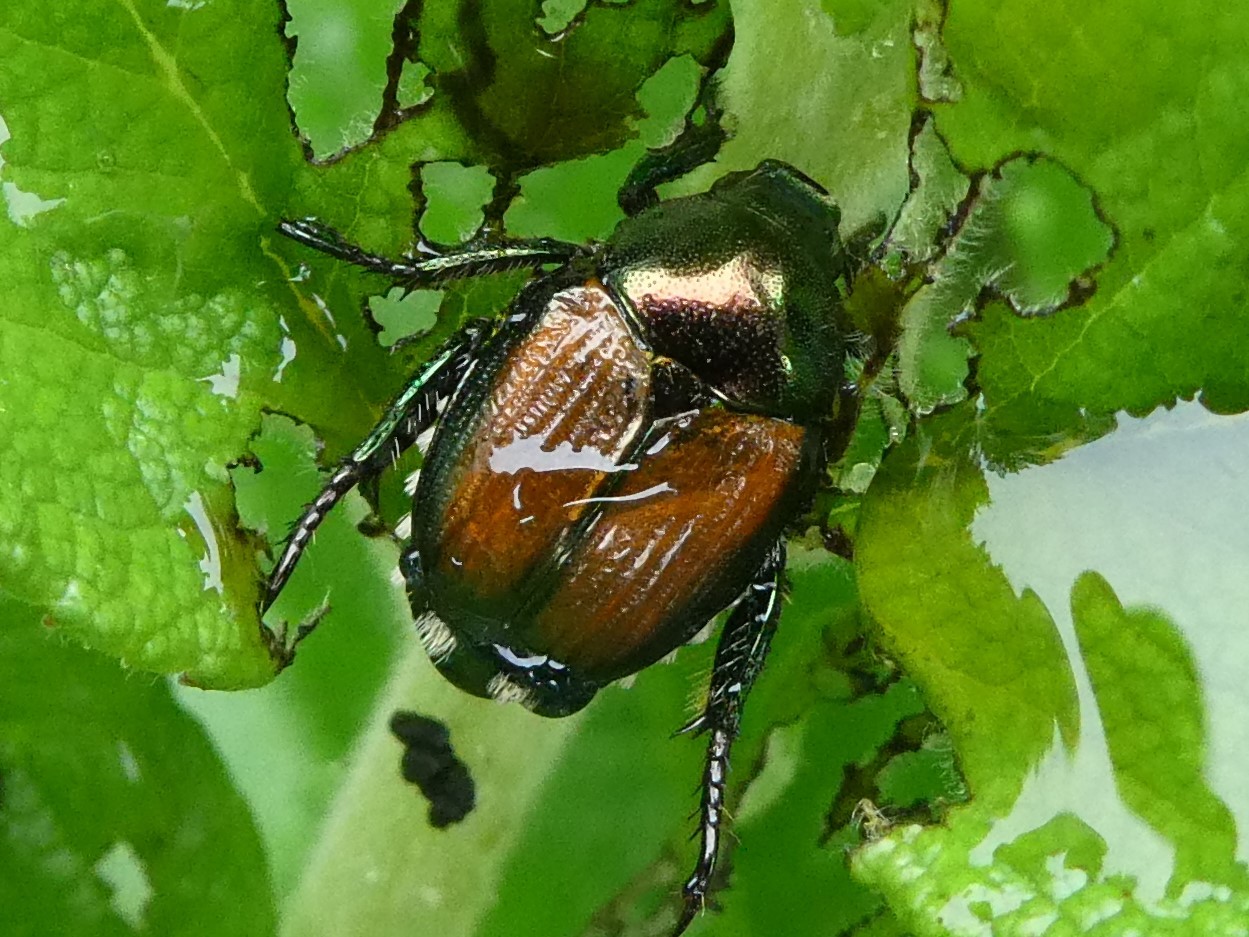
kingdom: Animalia
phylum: Arthropoda
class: Insecta
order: Coleoptera
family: Scarabaeidae
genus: Popillia
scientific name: Popillia japonica
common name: Japanese beetle
